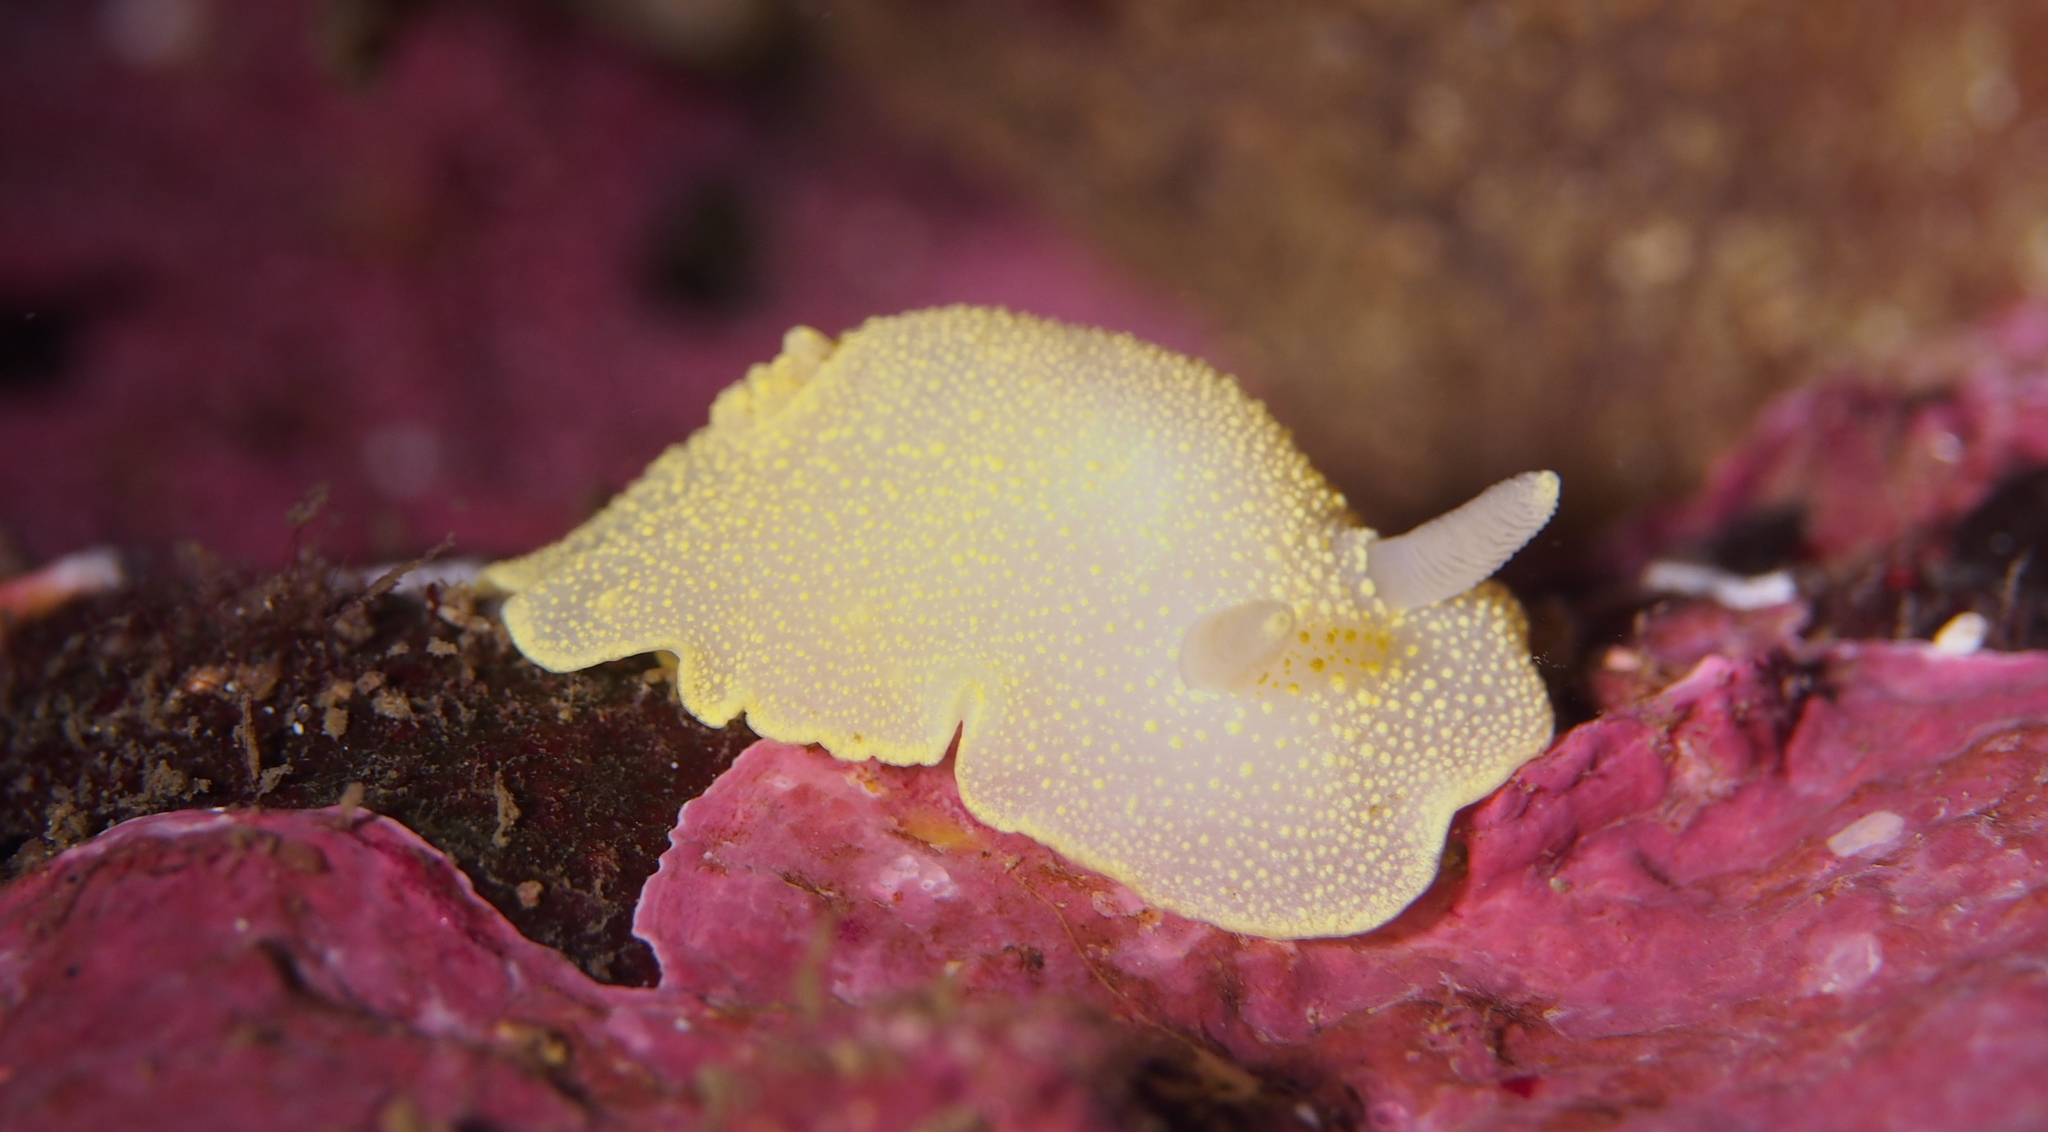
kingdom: Animalia
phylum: Mollusca
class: Gastropoda
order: Nudibranchia
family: Cadlinidae
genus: Cadlina
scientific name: Cadlina laevis
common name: White atlantic cadlina
